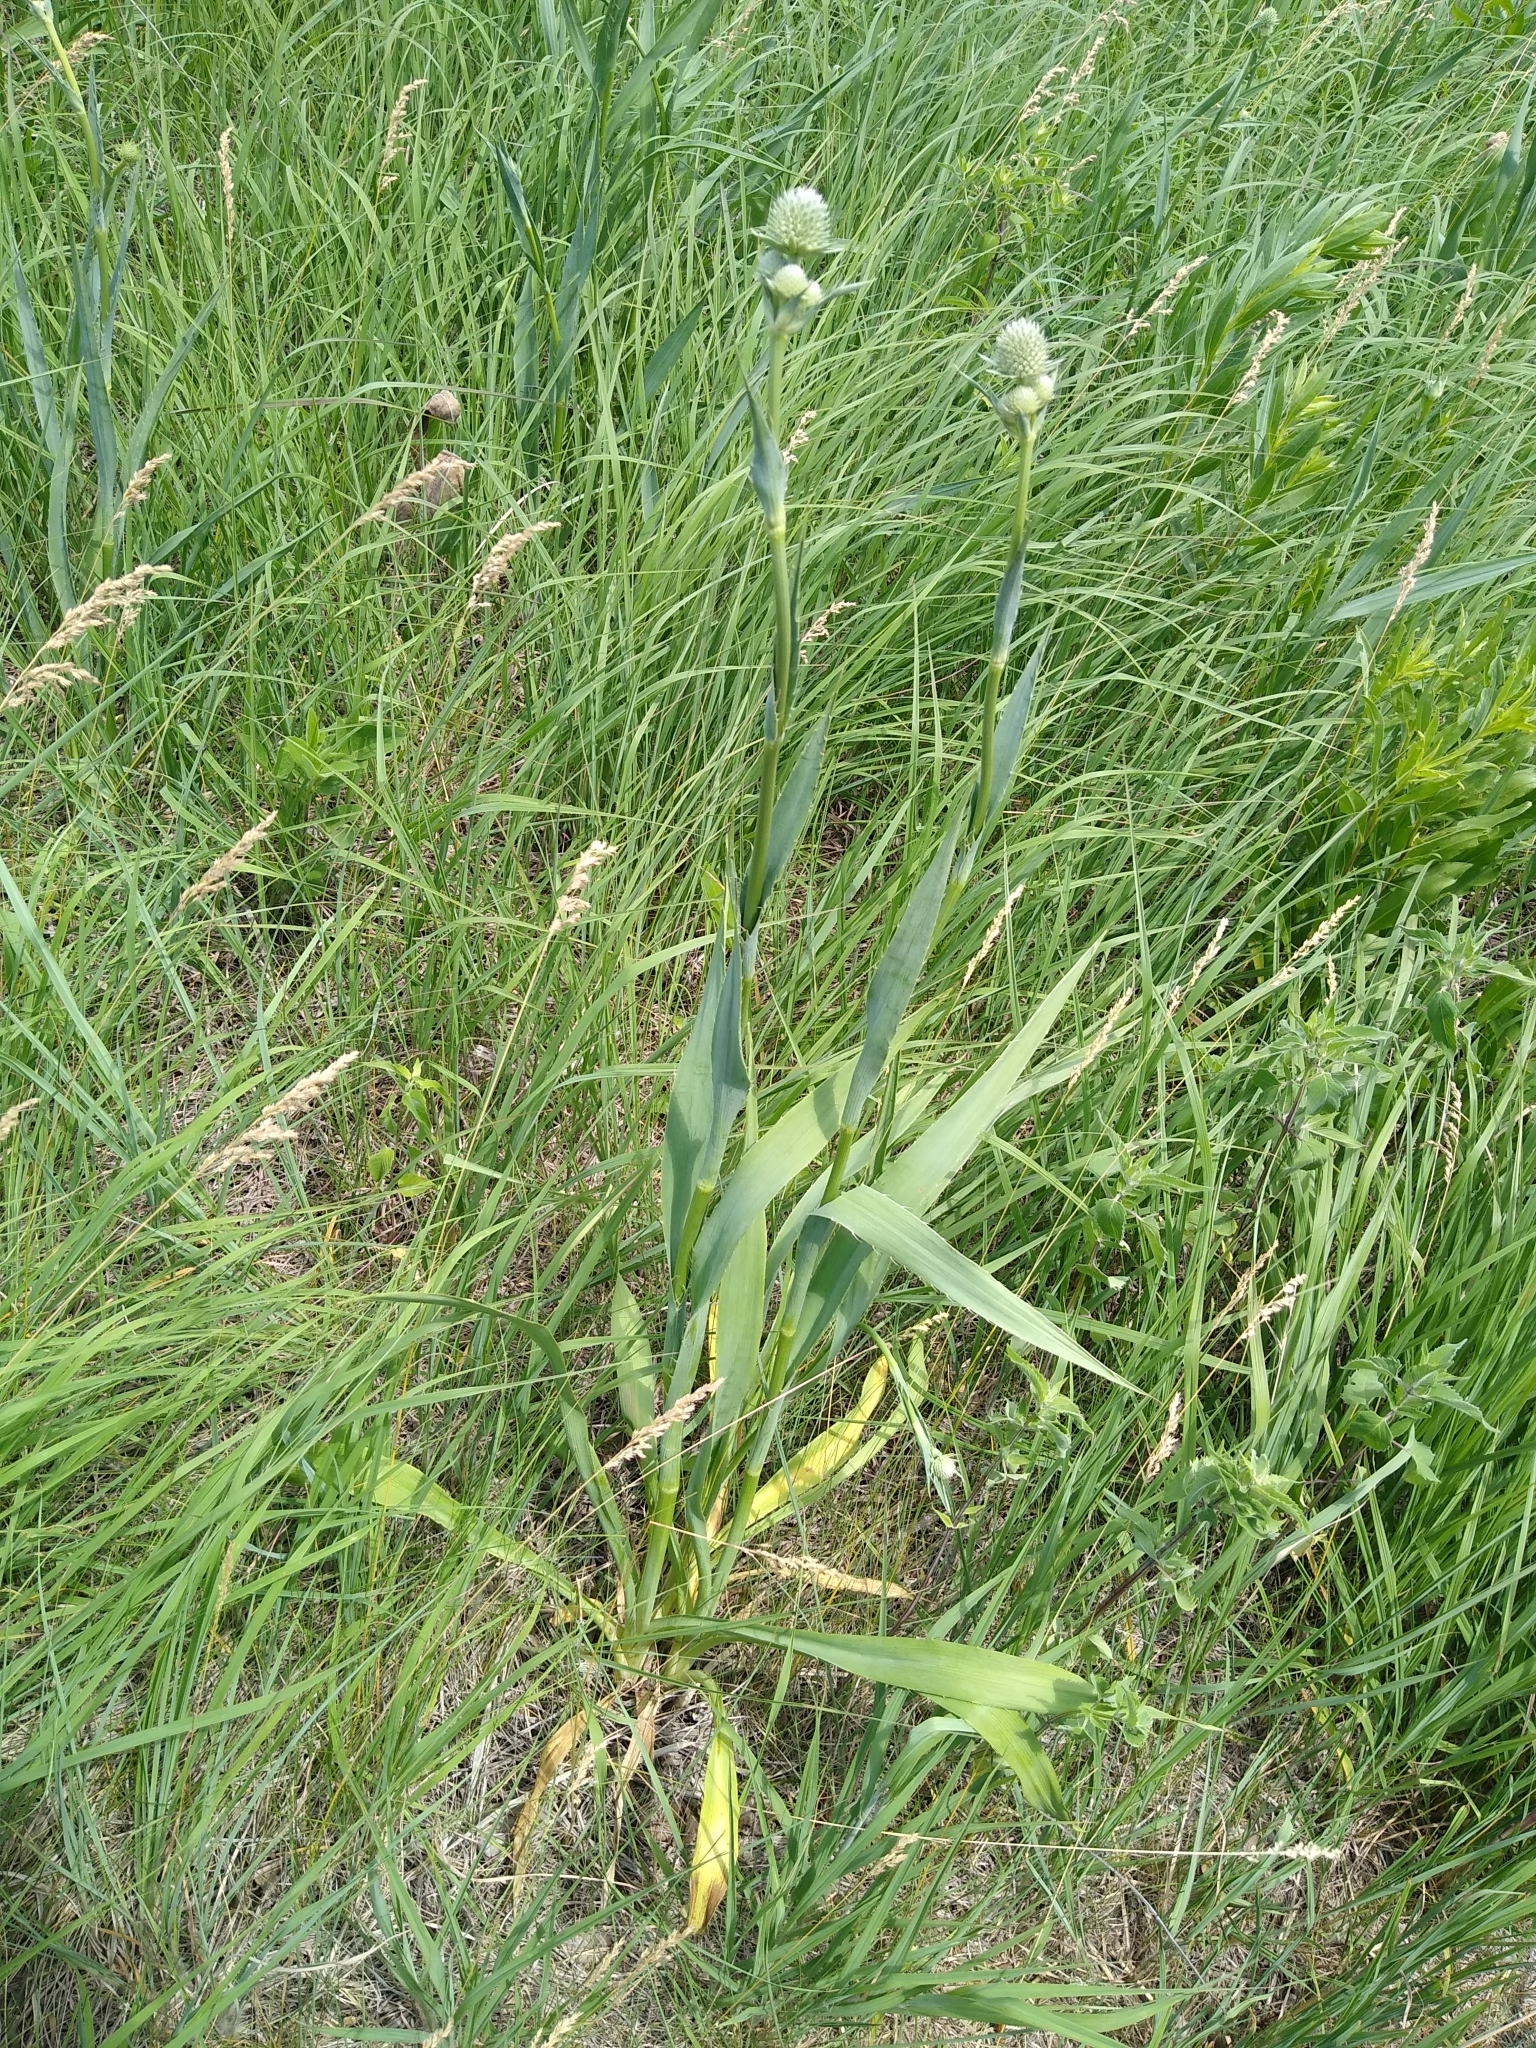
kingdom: Plantae
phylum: Tracheophyta
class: Magnoliopsida
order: Apiales
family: Apiaceae
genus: Eryngium
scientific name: Eryngium yuccifolium
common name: Button eryngo
